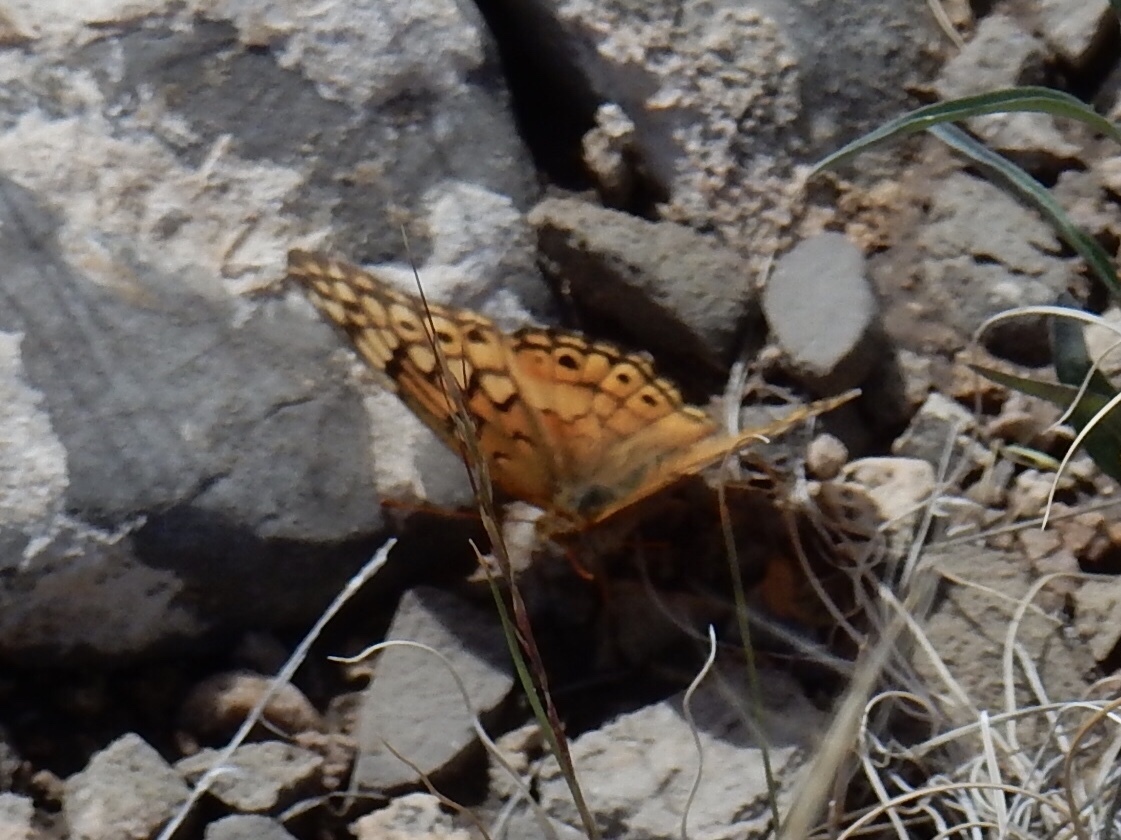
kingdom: Animalia
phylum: Arthropoda
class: Insecta
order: Lepidoptera
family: Nymphalidae
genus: Euptoieta
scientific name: Euptoieta claudia
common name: Variegated fritillary
